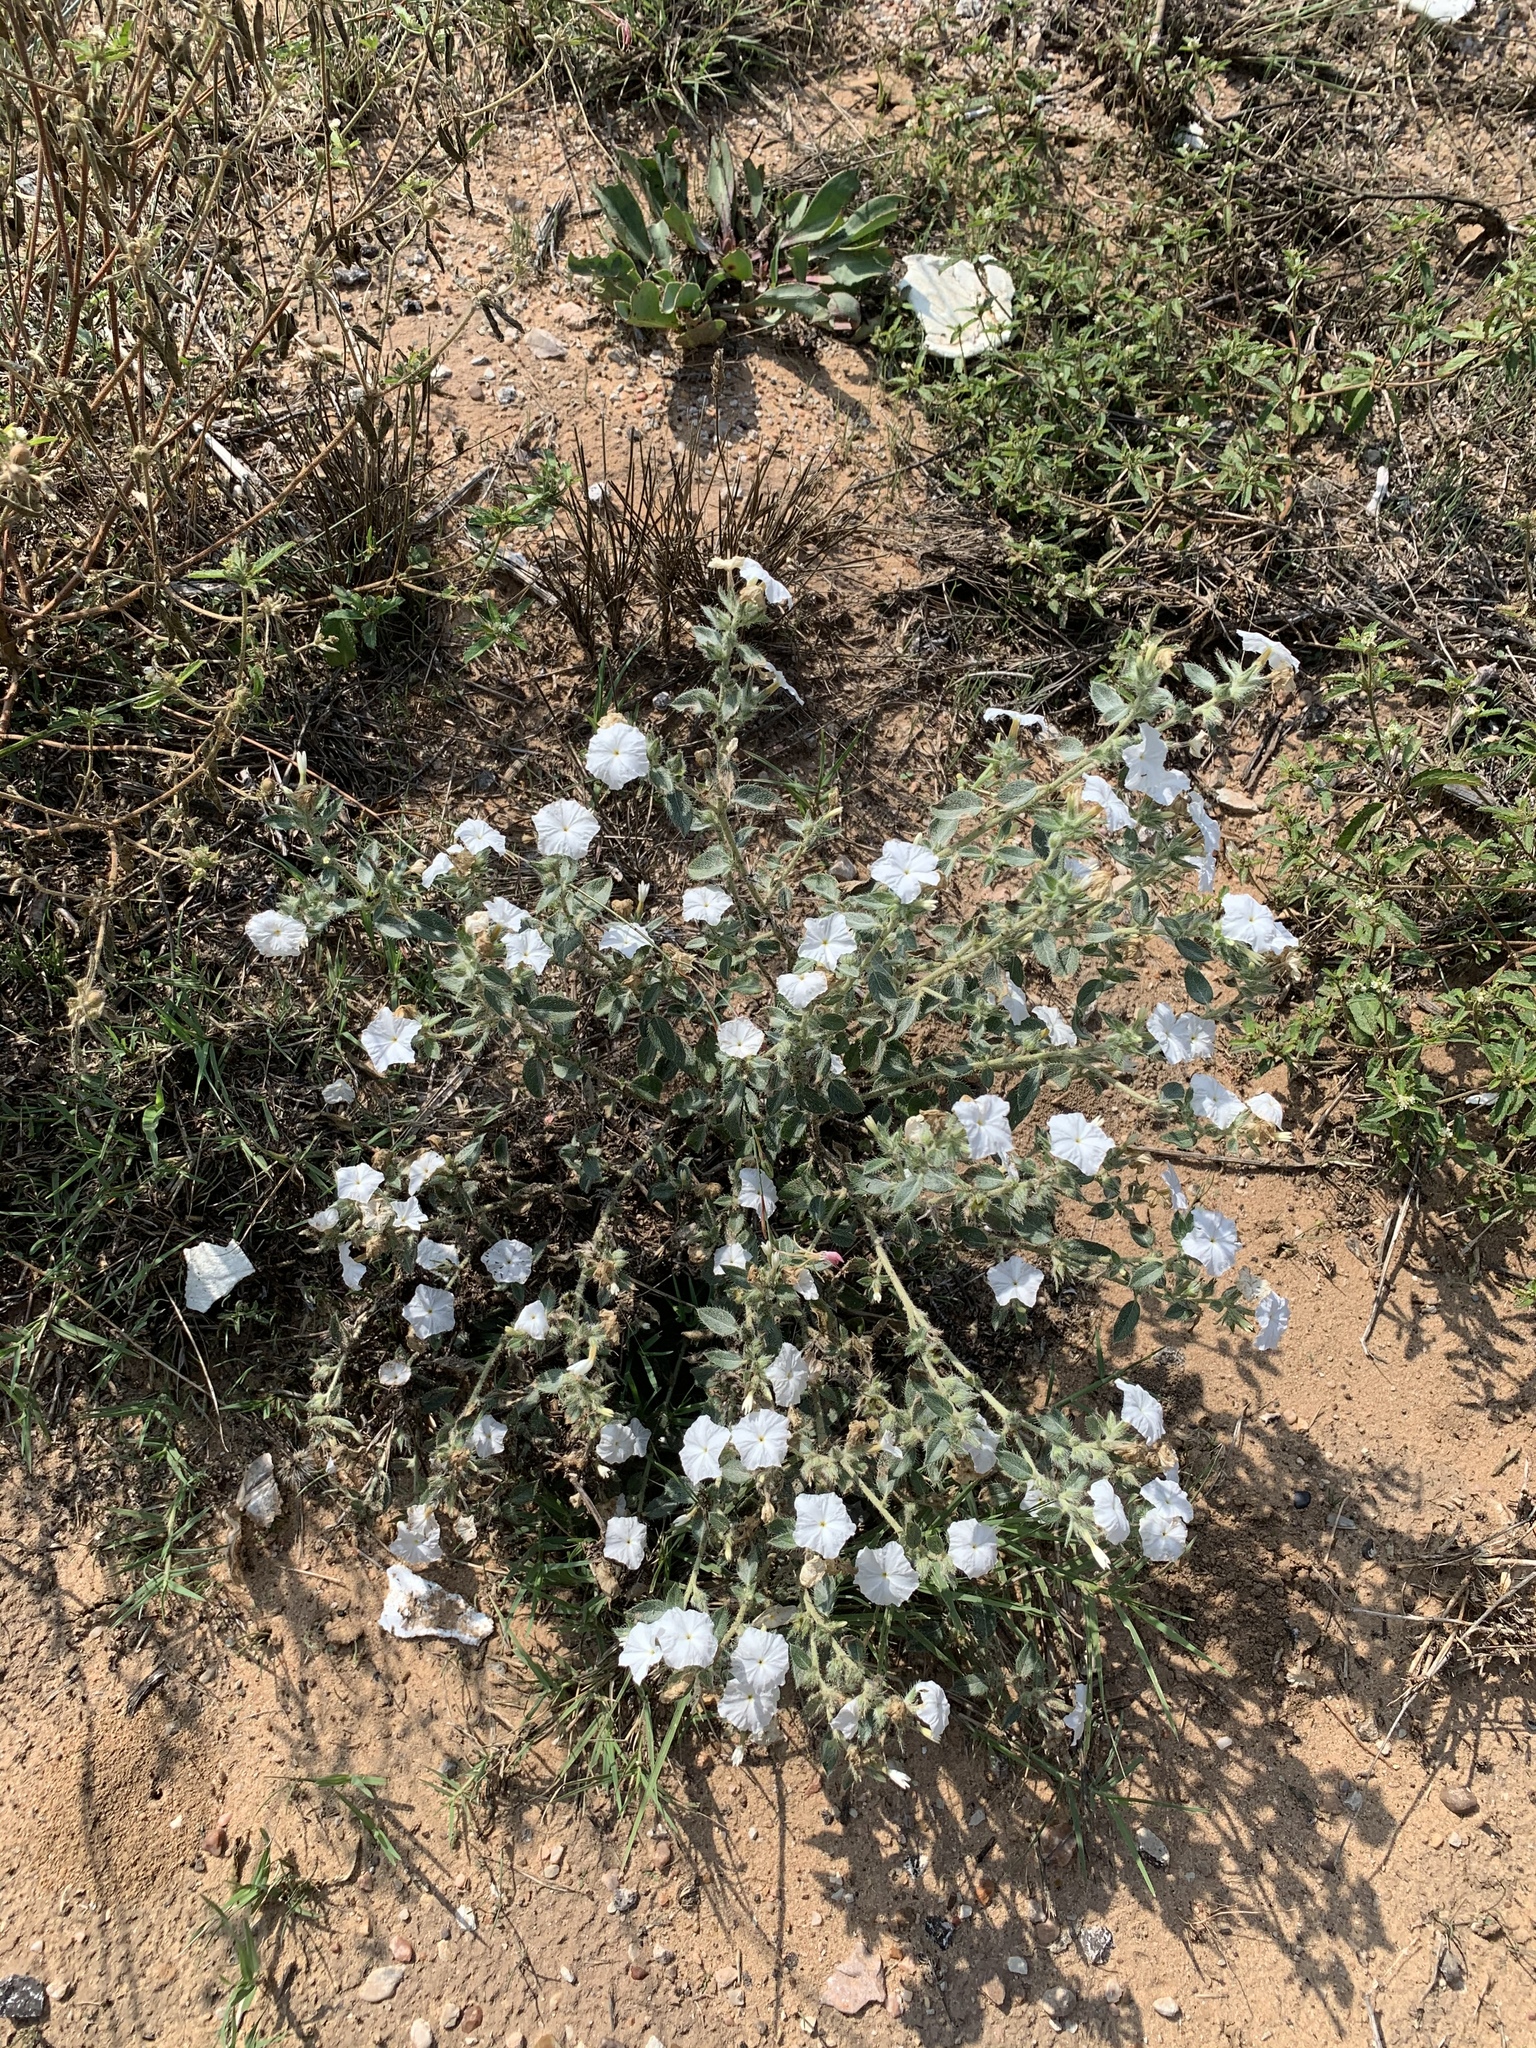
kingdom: Plantae
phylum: Tracheophyta
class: Magnoliopsida
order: Boraginales
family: Heliotropiaceae
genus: Euploca
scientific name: Euploca convolvulacea
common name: Bindweed heliotrope
